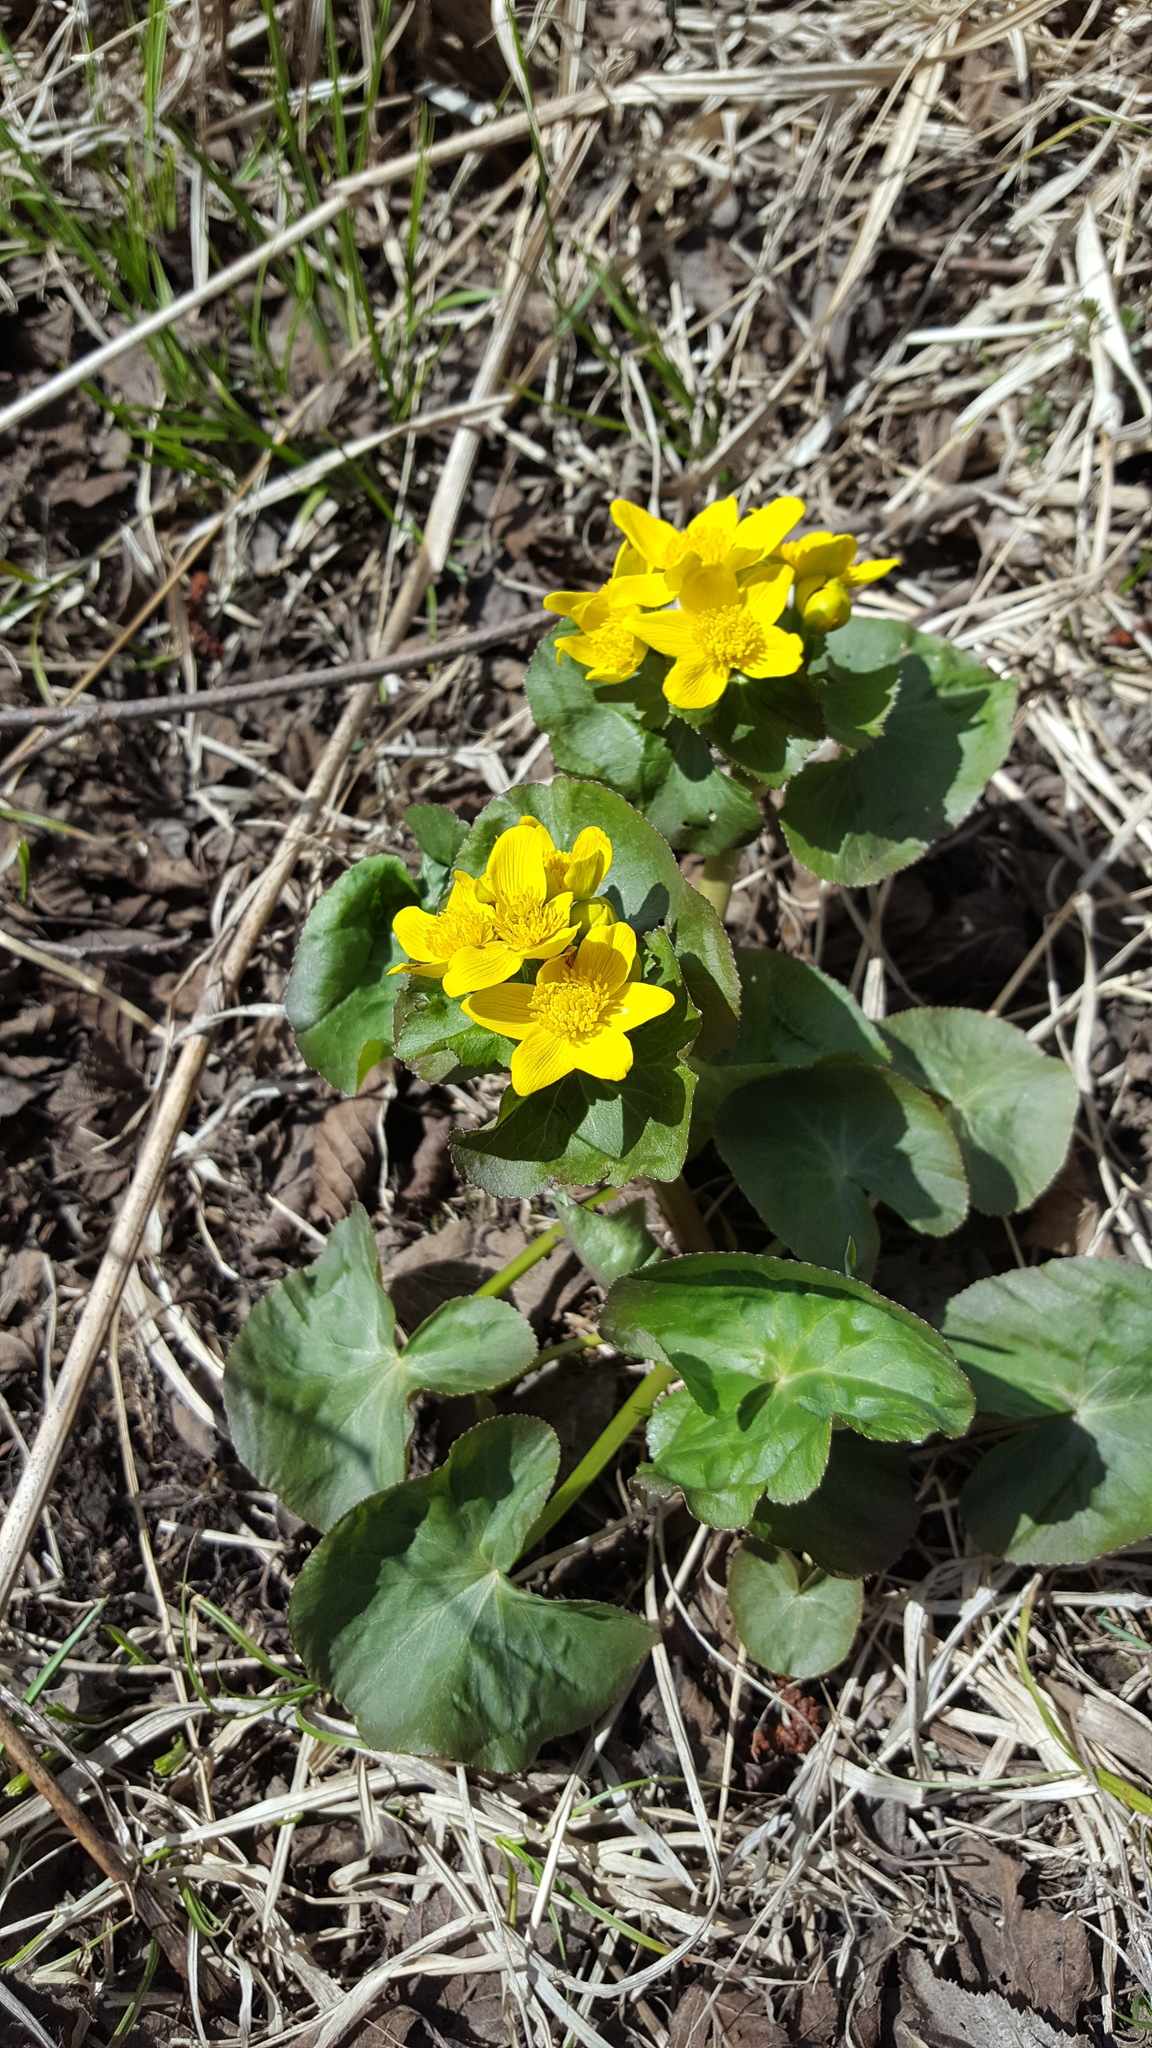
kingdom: Plantae
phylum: Tracheophyta
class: Magnoliopsida
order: Ranunculales
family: Ranunculaceae
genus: Caltha
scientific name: Caltha palustris
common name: Marsh marigold
